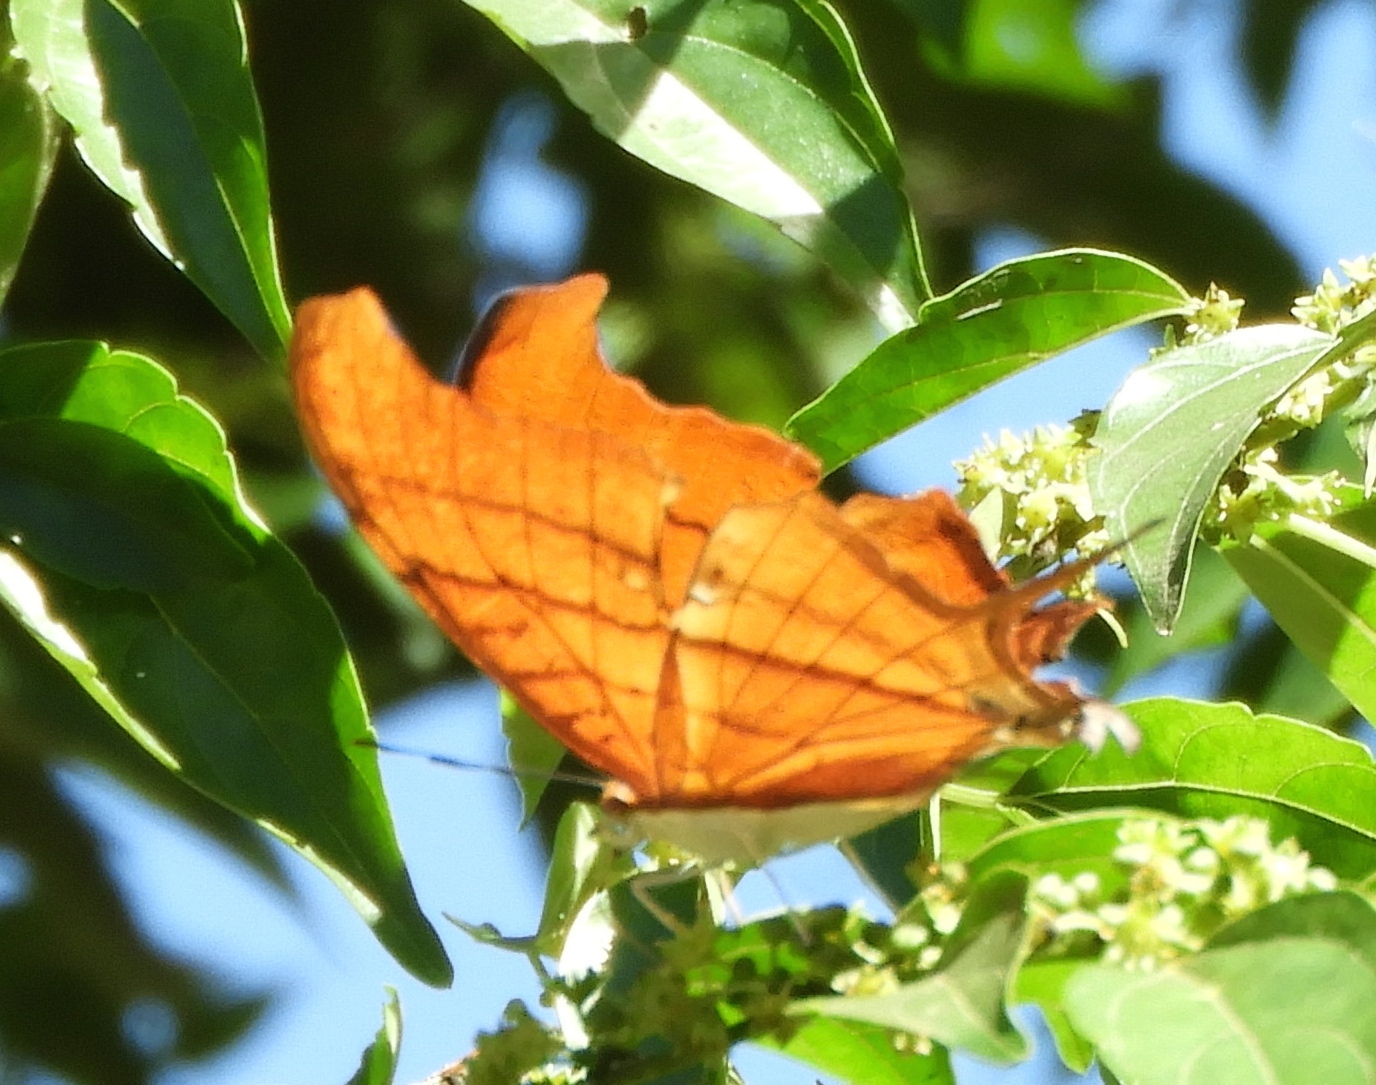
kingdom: Animalia
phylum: Arthropoda
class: Insecta
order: Lepidoptera
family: Nymphalidae
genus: Marpesia
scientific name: Marpesia petreus
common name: Red dagger wing
